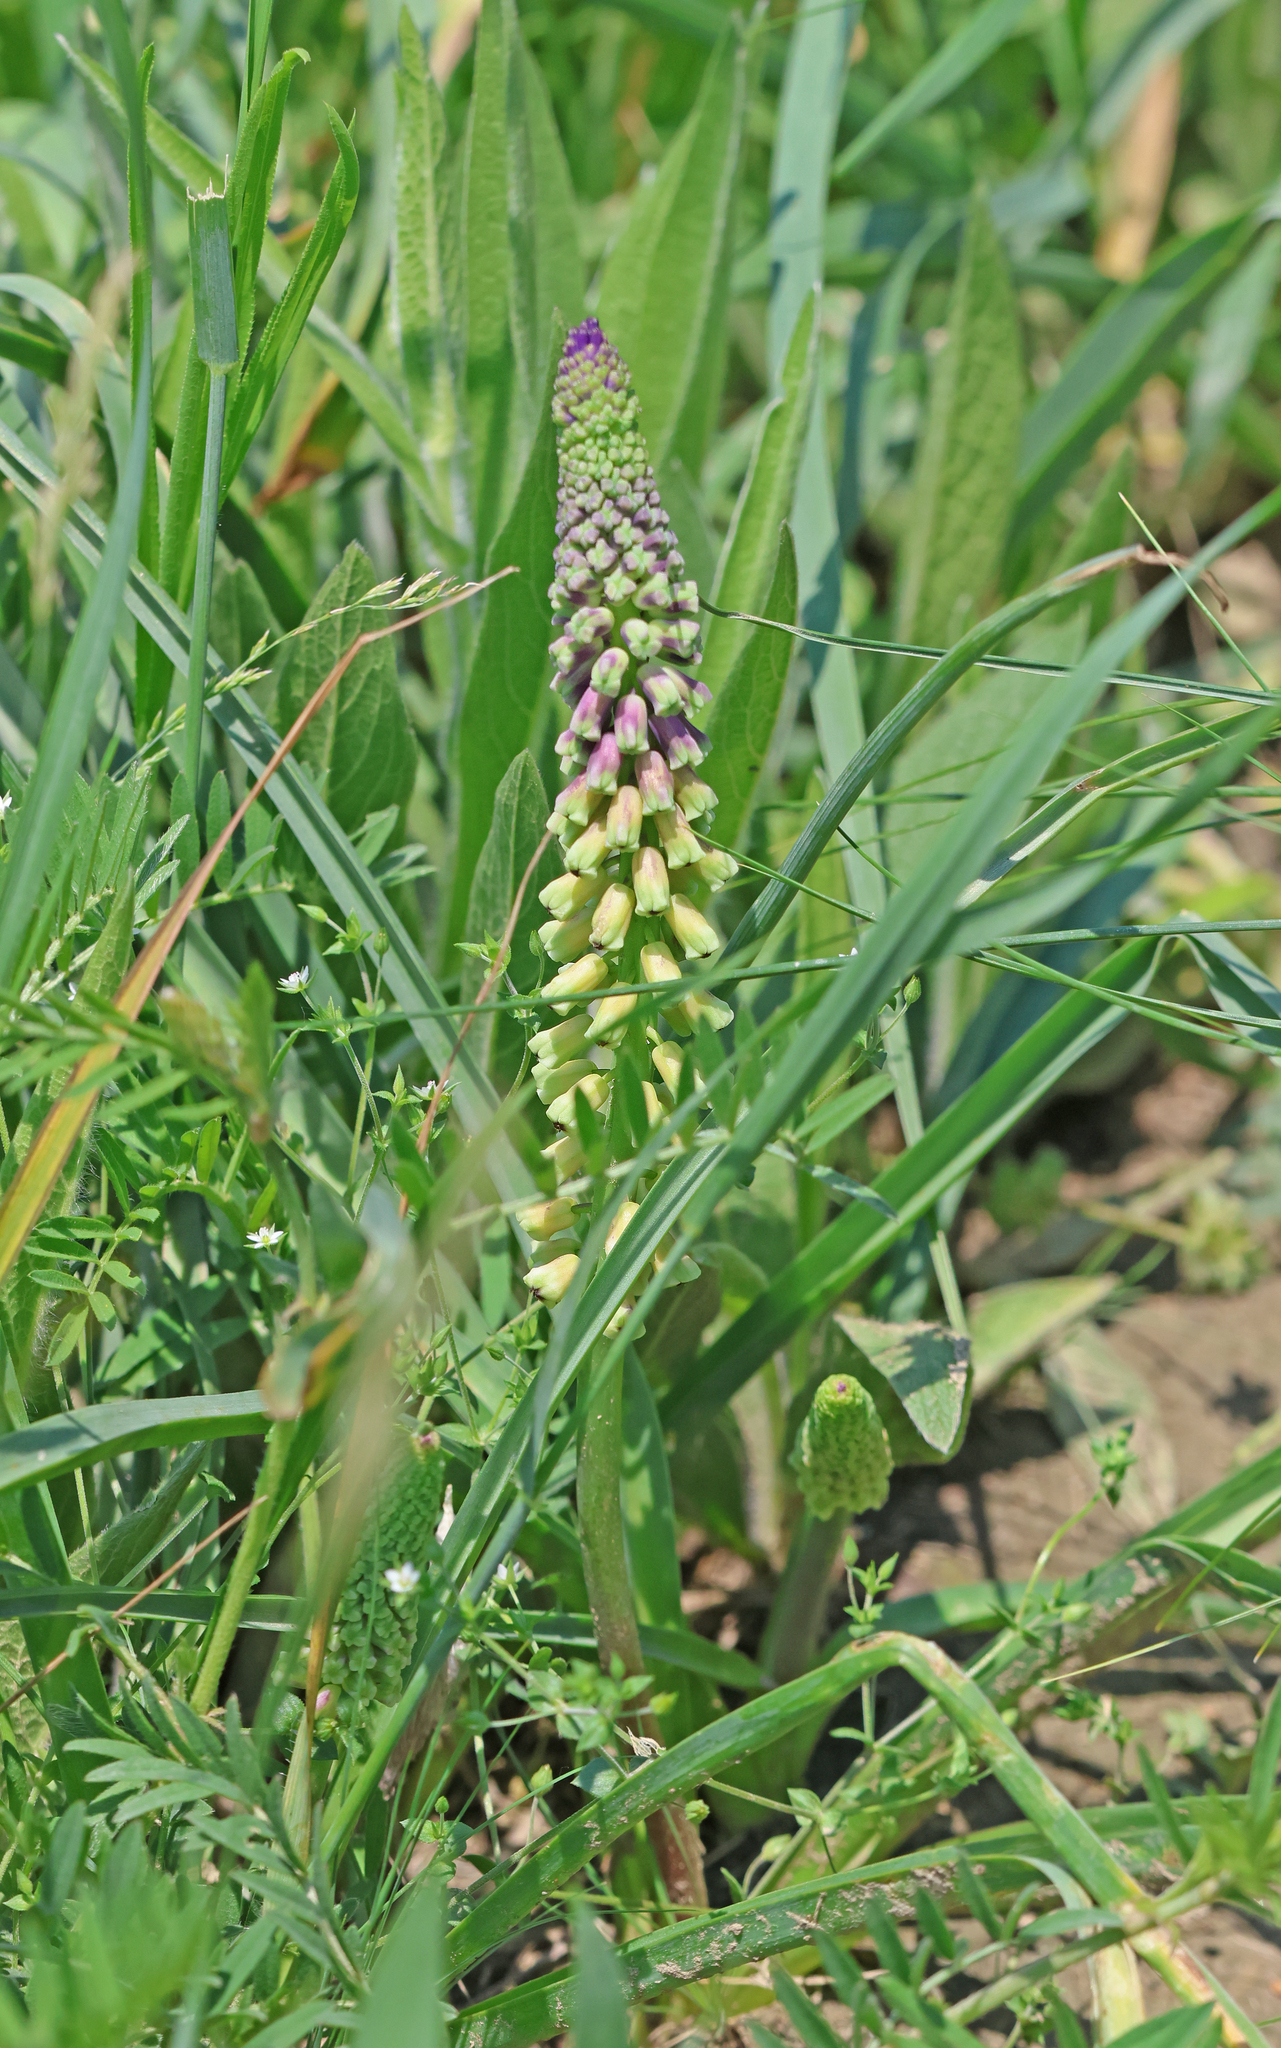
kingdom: Plantae
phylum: Tracheophyta
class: Liliopsida
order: Asparagales
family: Asparagaceae
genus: Muscari
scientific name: Muscari tenuiflorum
